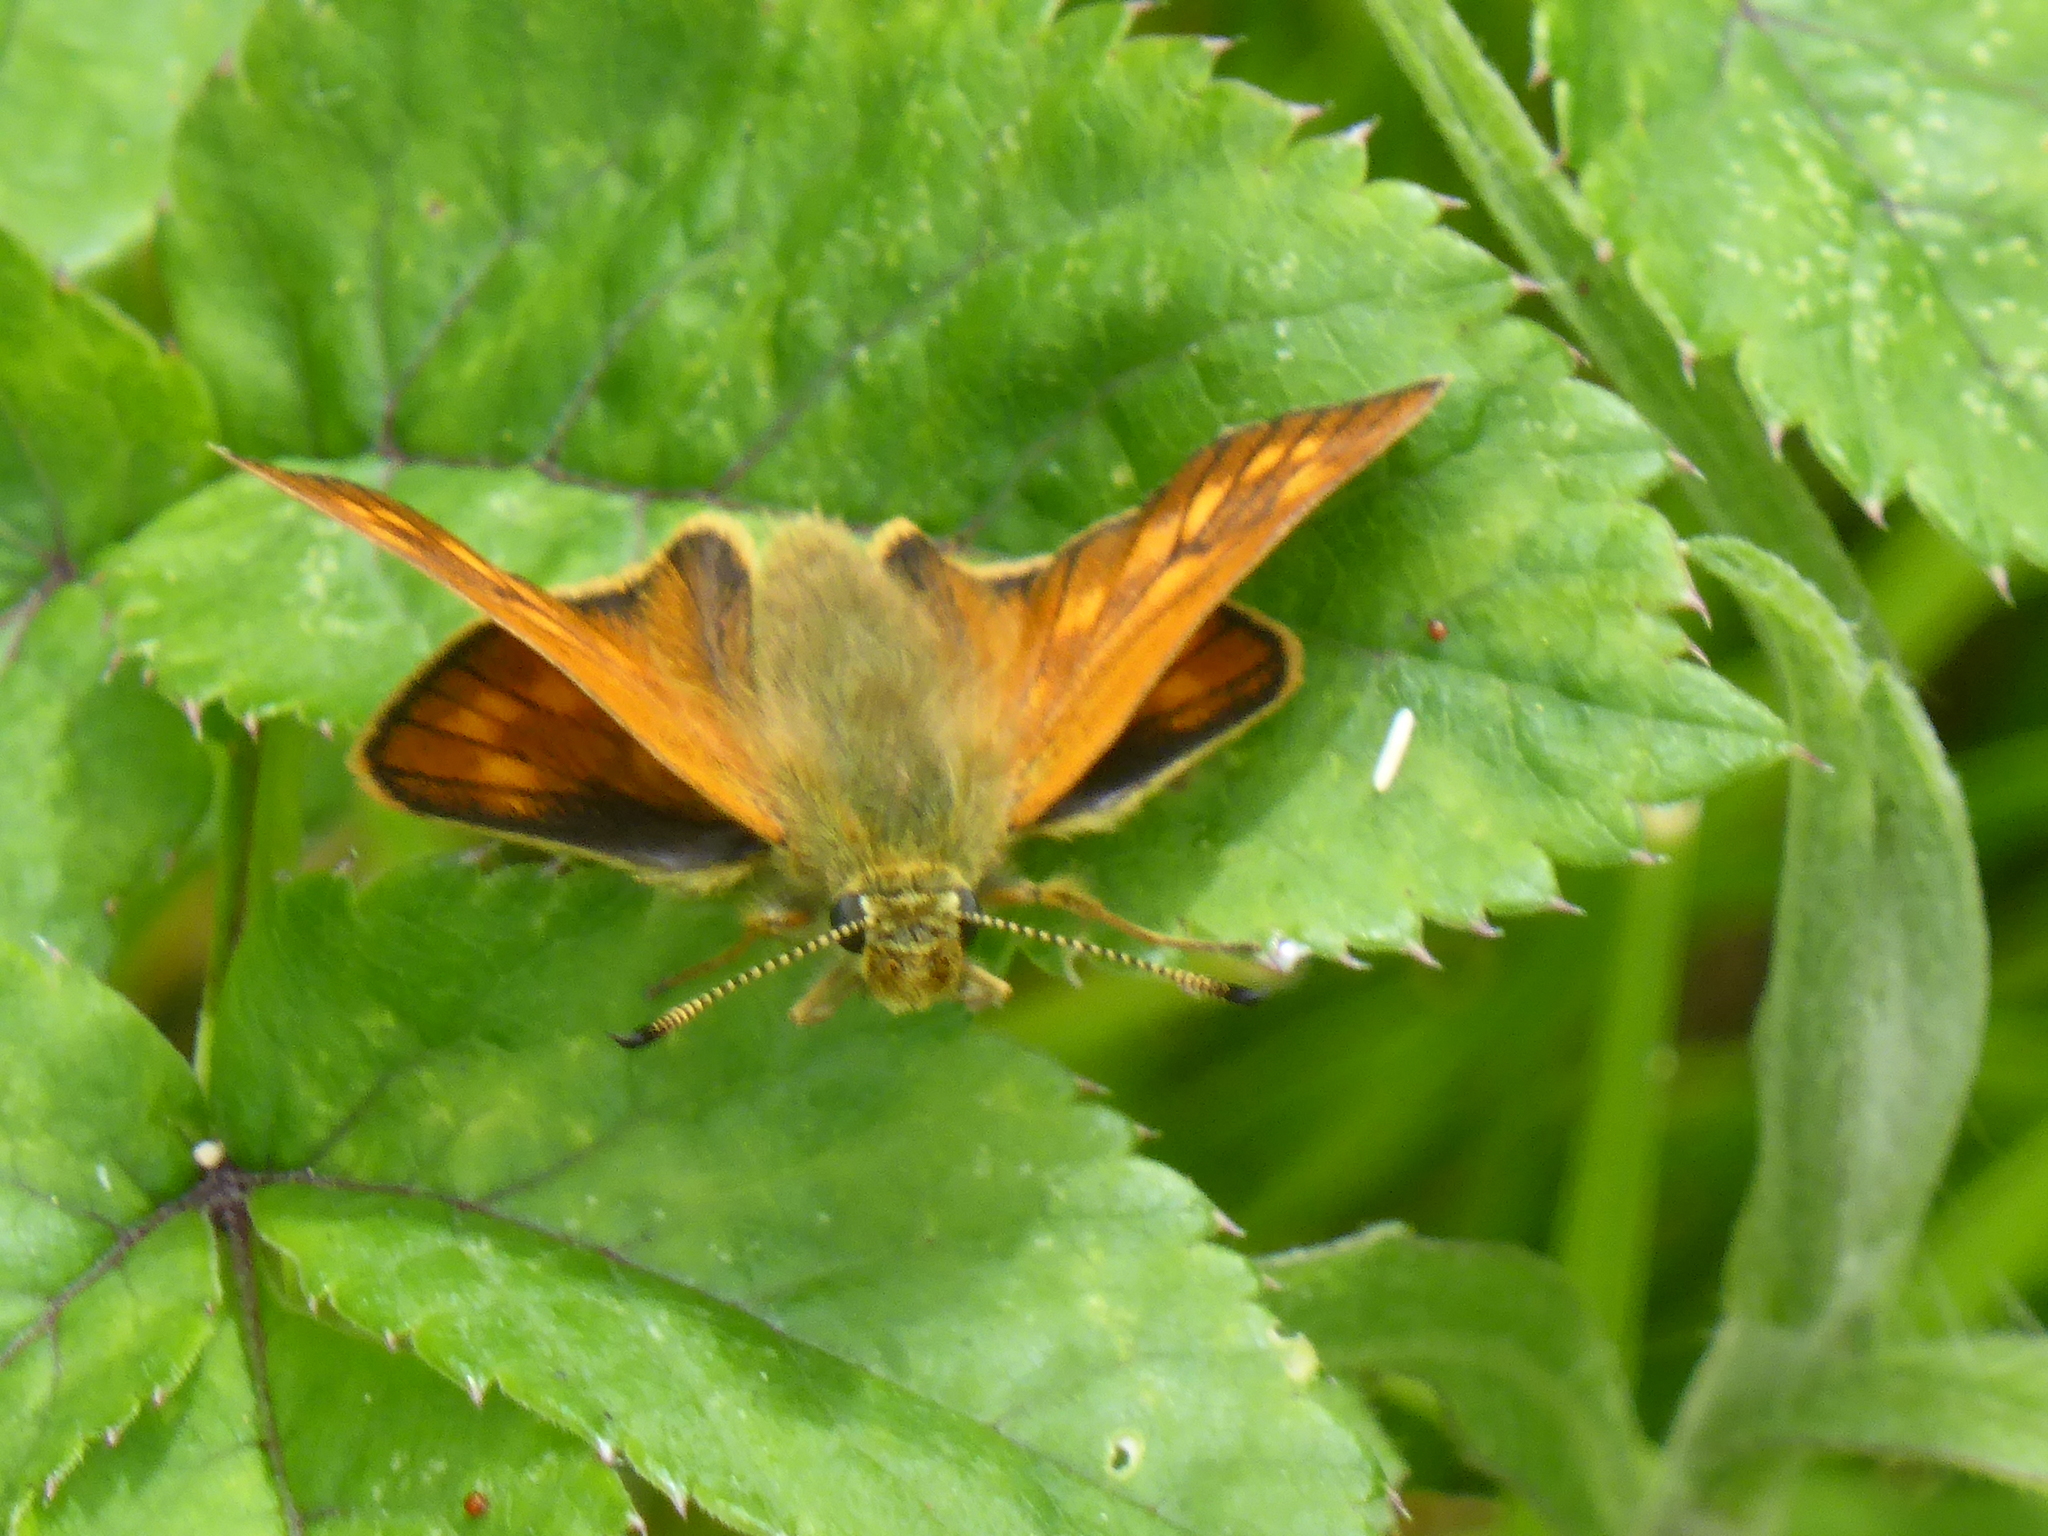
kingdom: Animalia
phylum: Arthropoda
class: Insecta
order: Lepidoptera
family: Hesperiidae
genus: Ochlodes
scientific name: Ochlodes venata
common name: Large skipper
